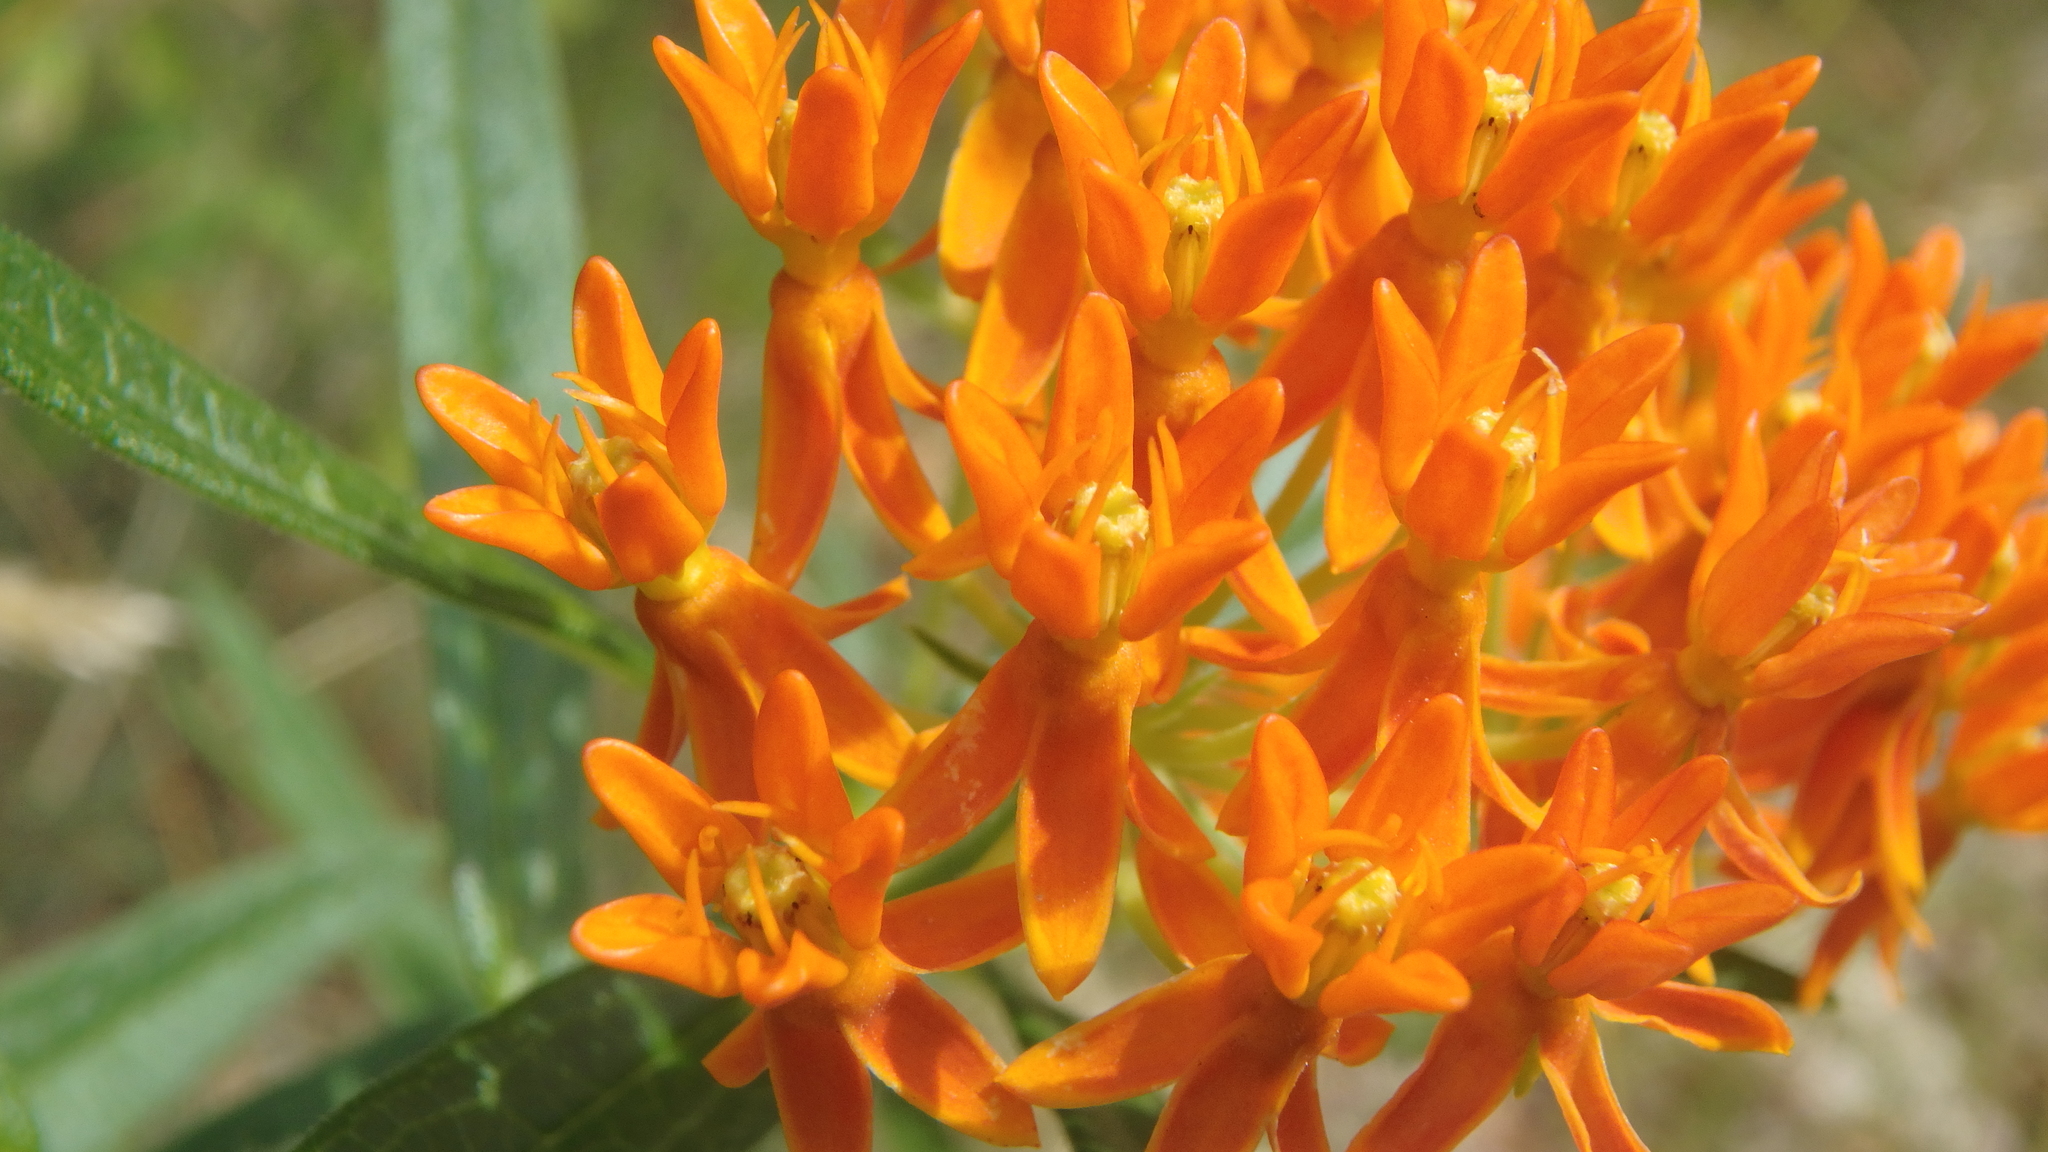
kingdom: Plantae
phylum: Tracheophyta
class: Magnoliopsida
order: Gentianales
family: Apocynaceae
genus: Asclepias
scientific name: Asclepias tuberosa
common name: Butterfly milkweed
